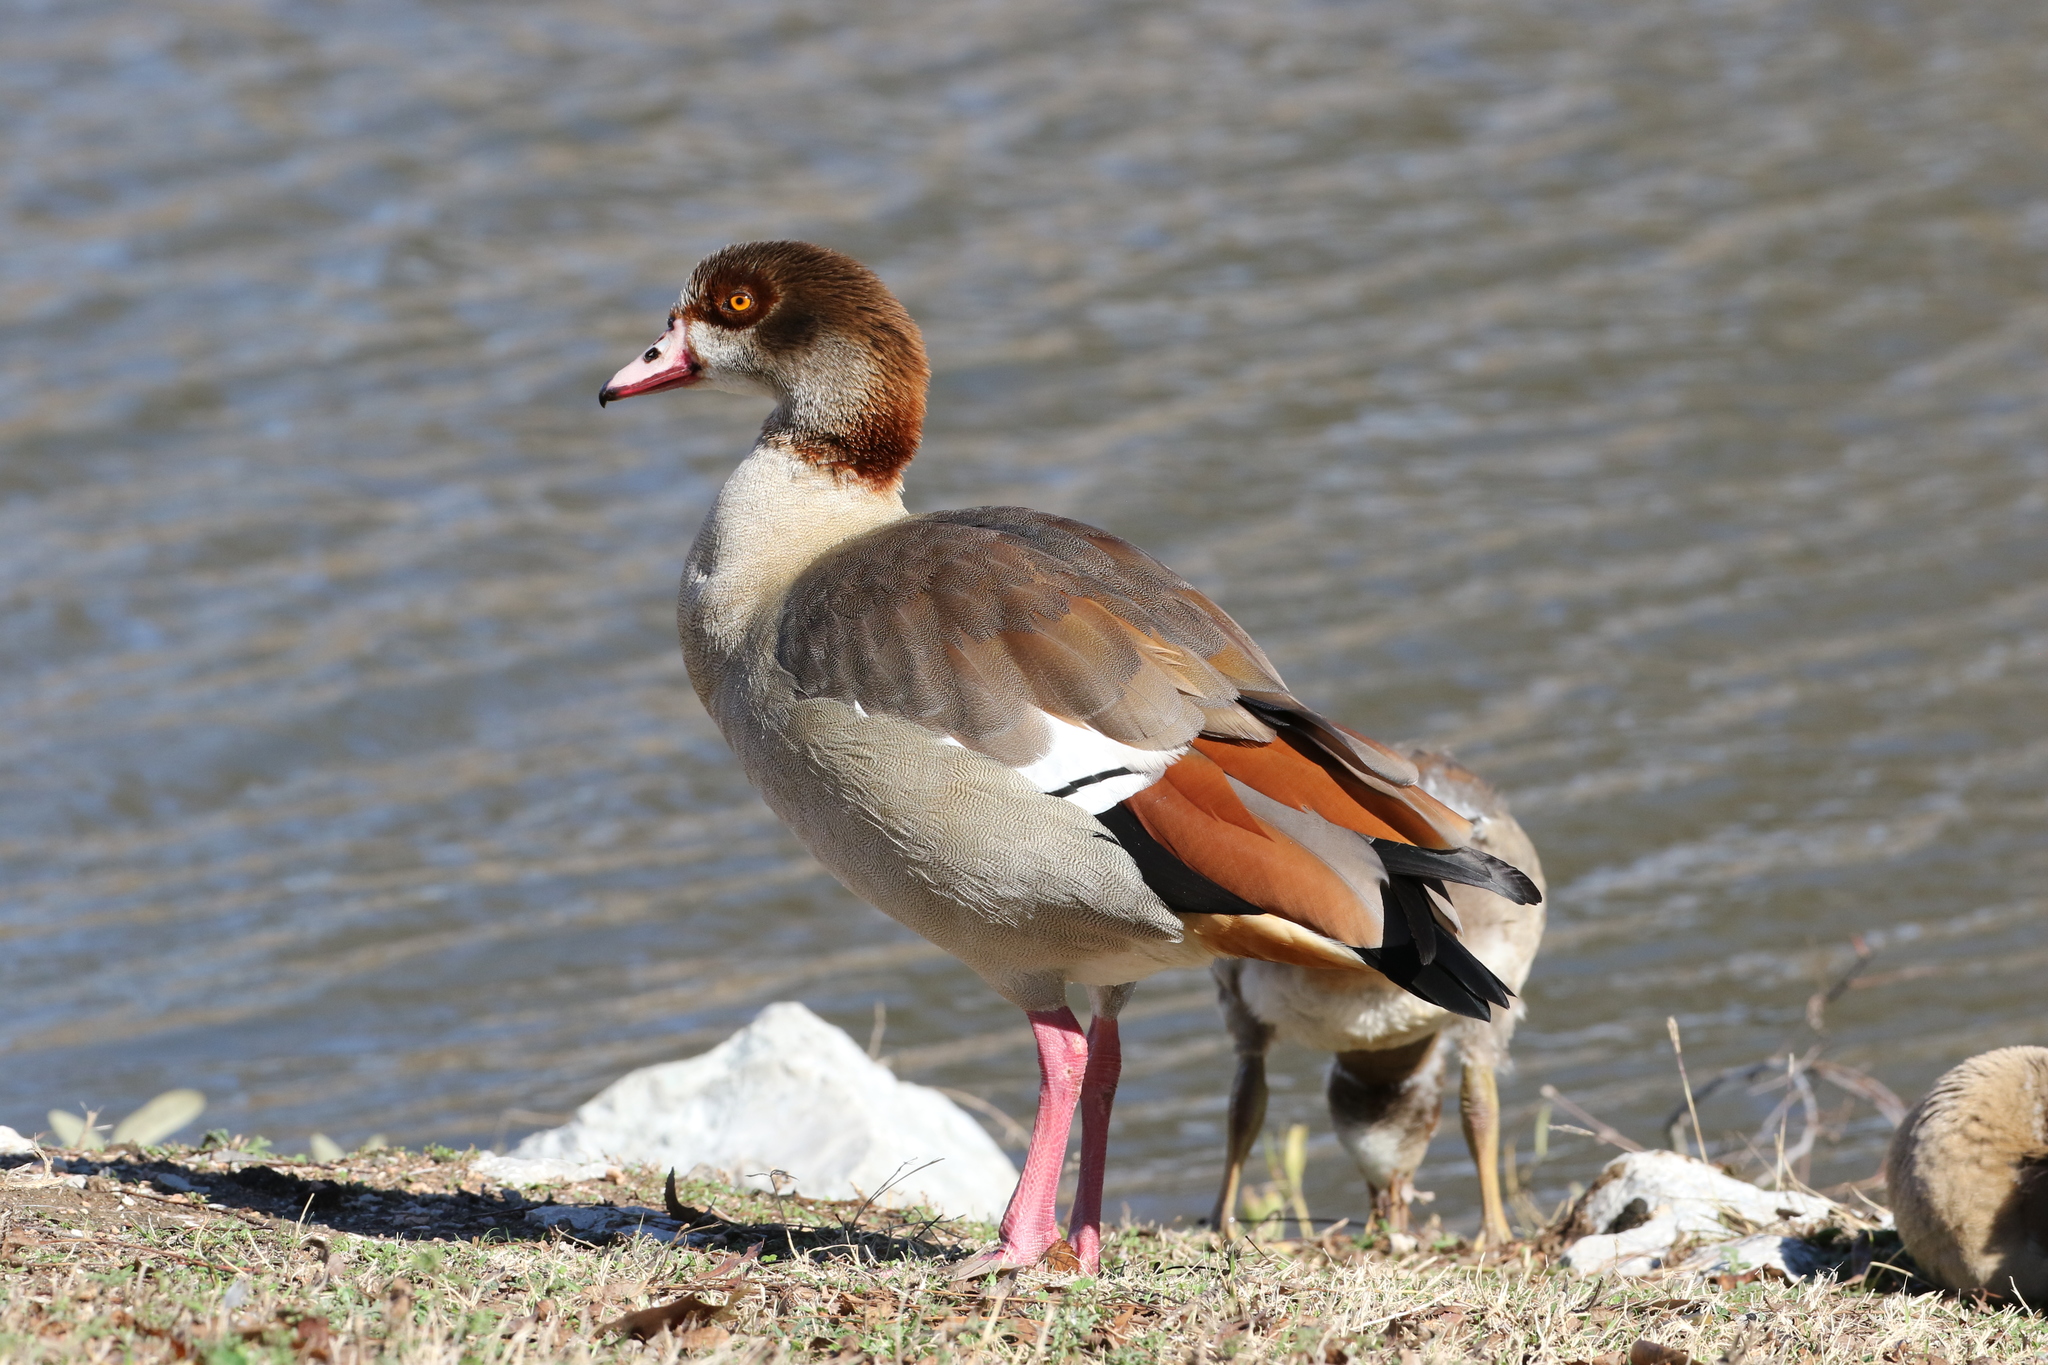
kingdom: Animalia
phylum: Chordata
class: Aves
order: Anseriformes
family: Anatidae
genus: Alopochen
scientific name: Alopochen aegyptiaca
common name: Egyptian goose
